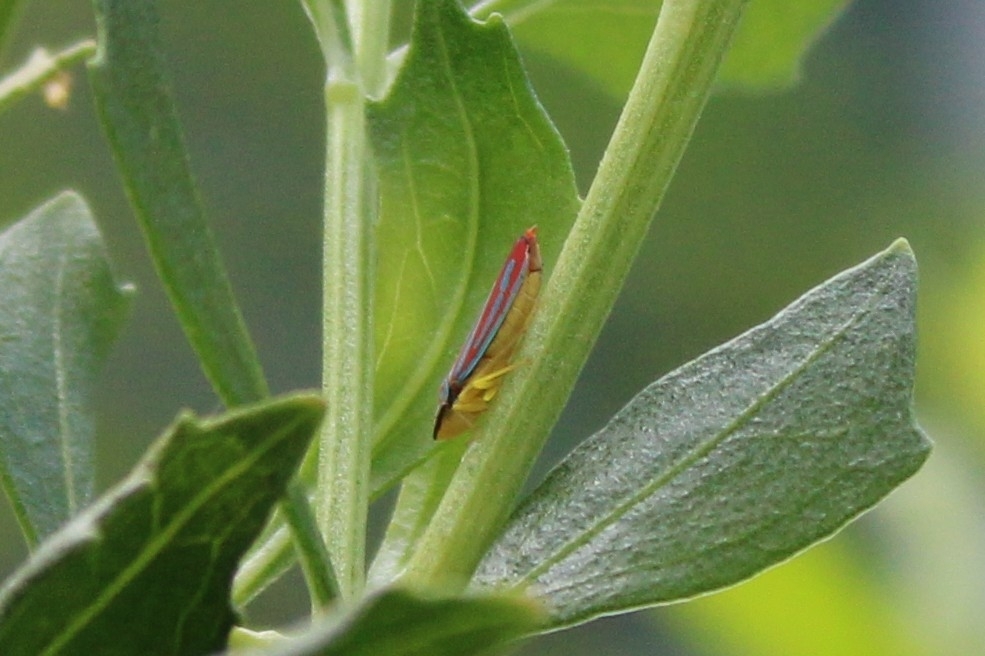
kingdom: Animalia
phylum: Arthropoda
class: Insecta
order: Hemiptera
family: Cicadellidae
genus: Graphocephala
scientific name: Graphocephala coccinea
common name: Candy-striped leafhopper
